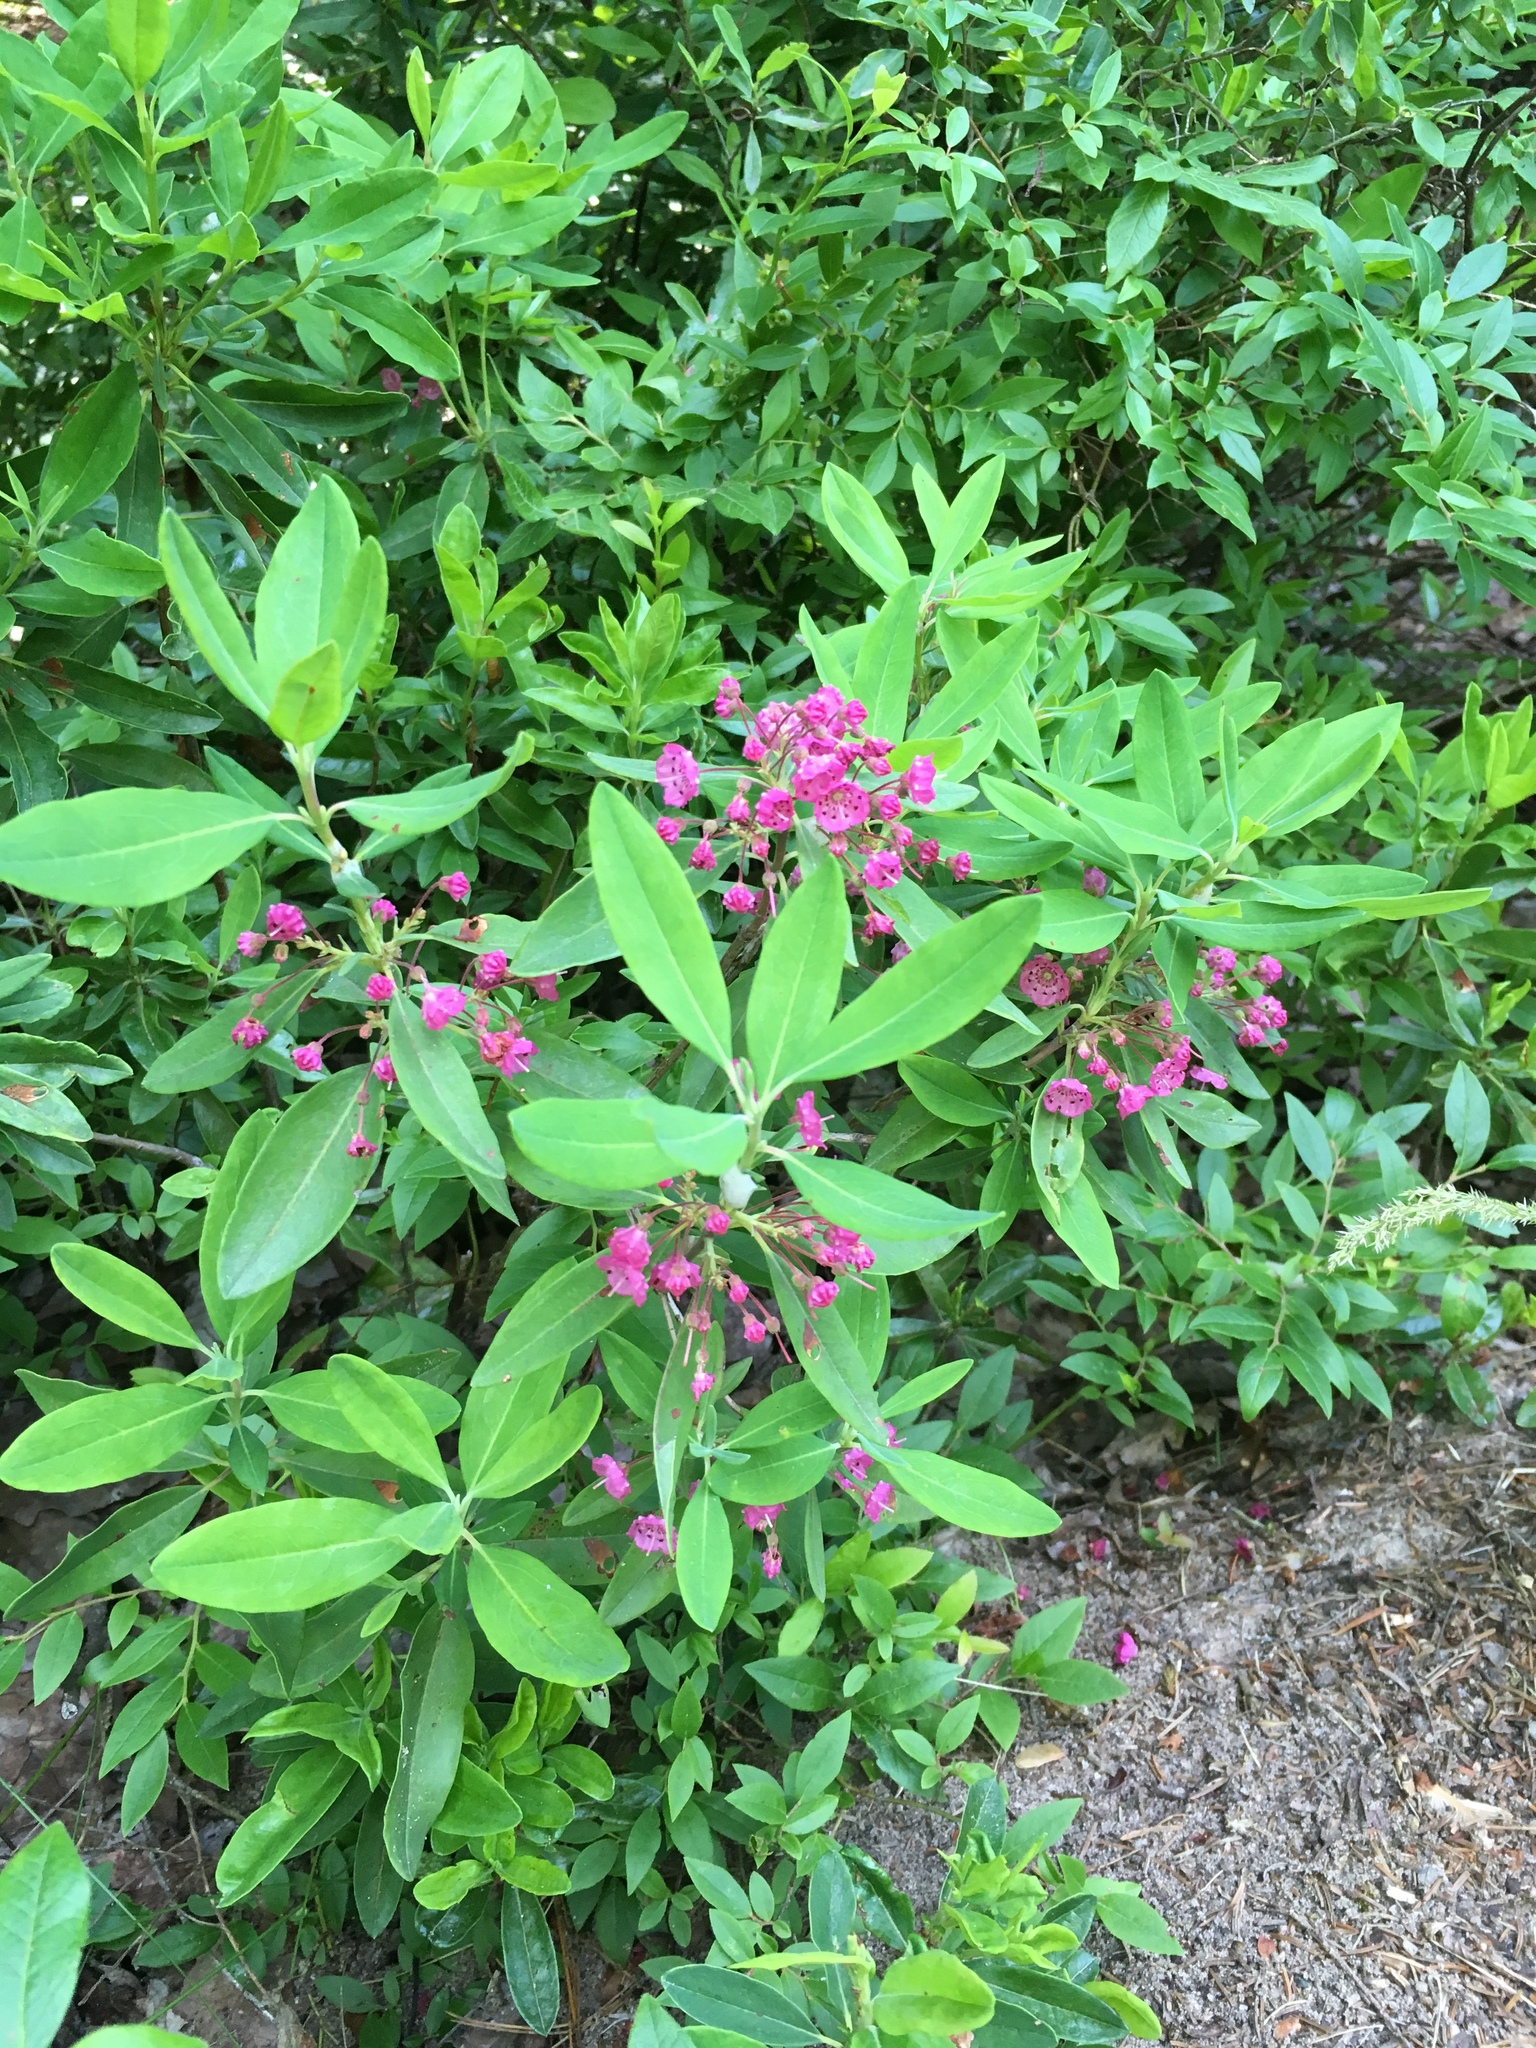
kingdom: Plantae
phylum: Tracheophyta
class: Magnoliopsida
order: Ericales
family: Ericaceae
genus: Kalmia
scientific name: Kalmia angustifolia
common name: Sheep-laurel
